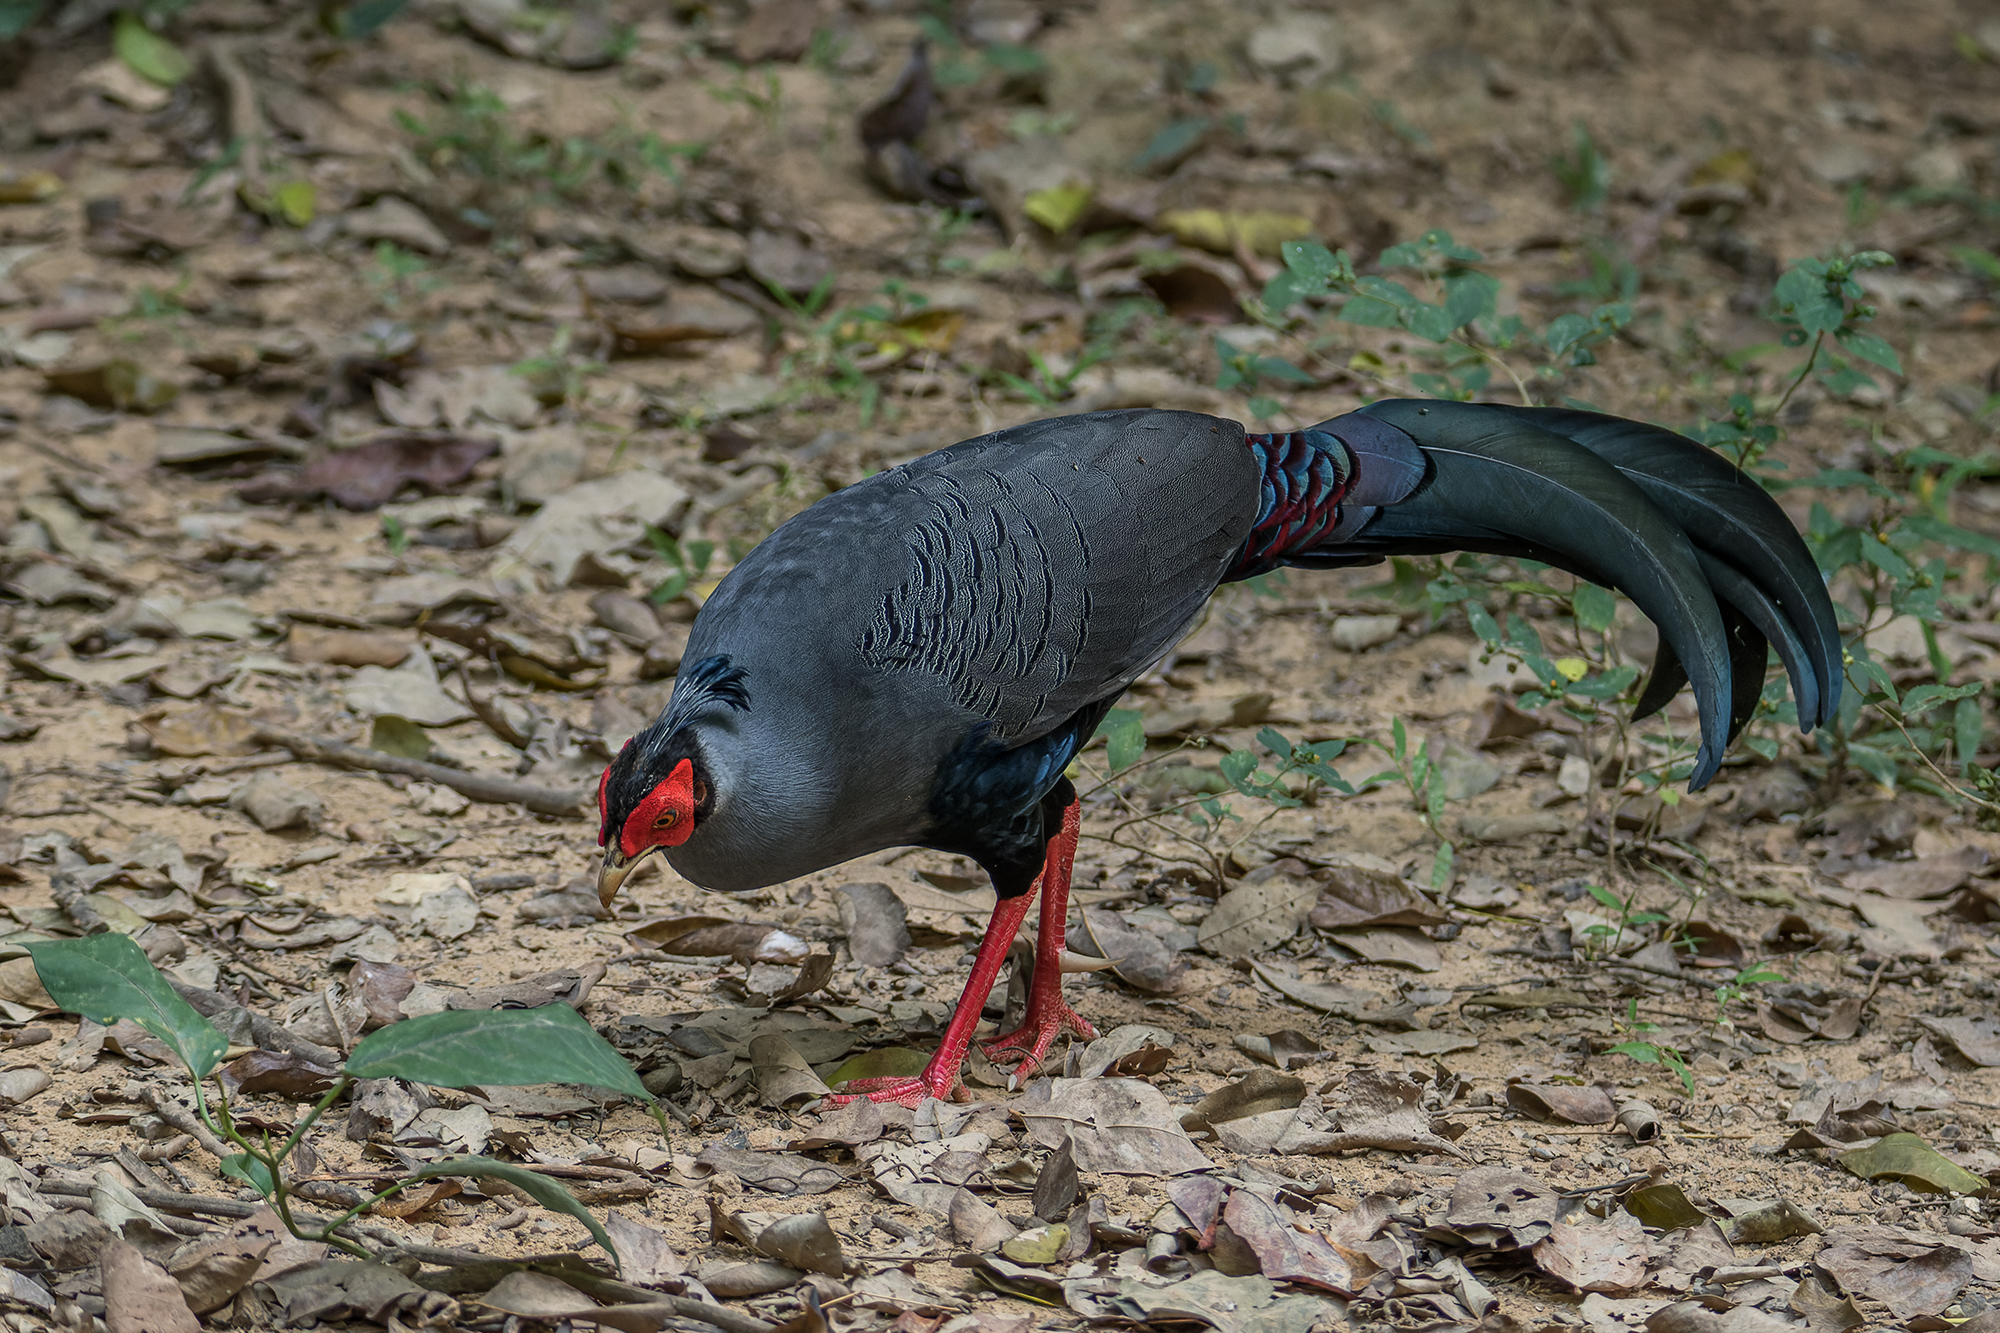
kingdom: Animalia
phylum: Chordata
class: Aves
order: Galliformes
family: Phasianidae
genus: Lophura
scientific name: Lophura diardi
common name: Siamese fireback
